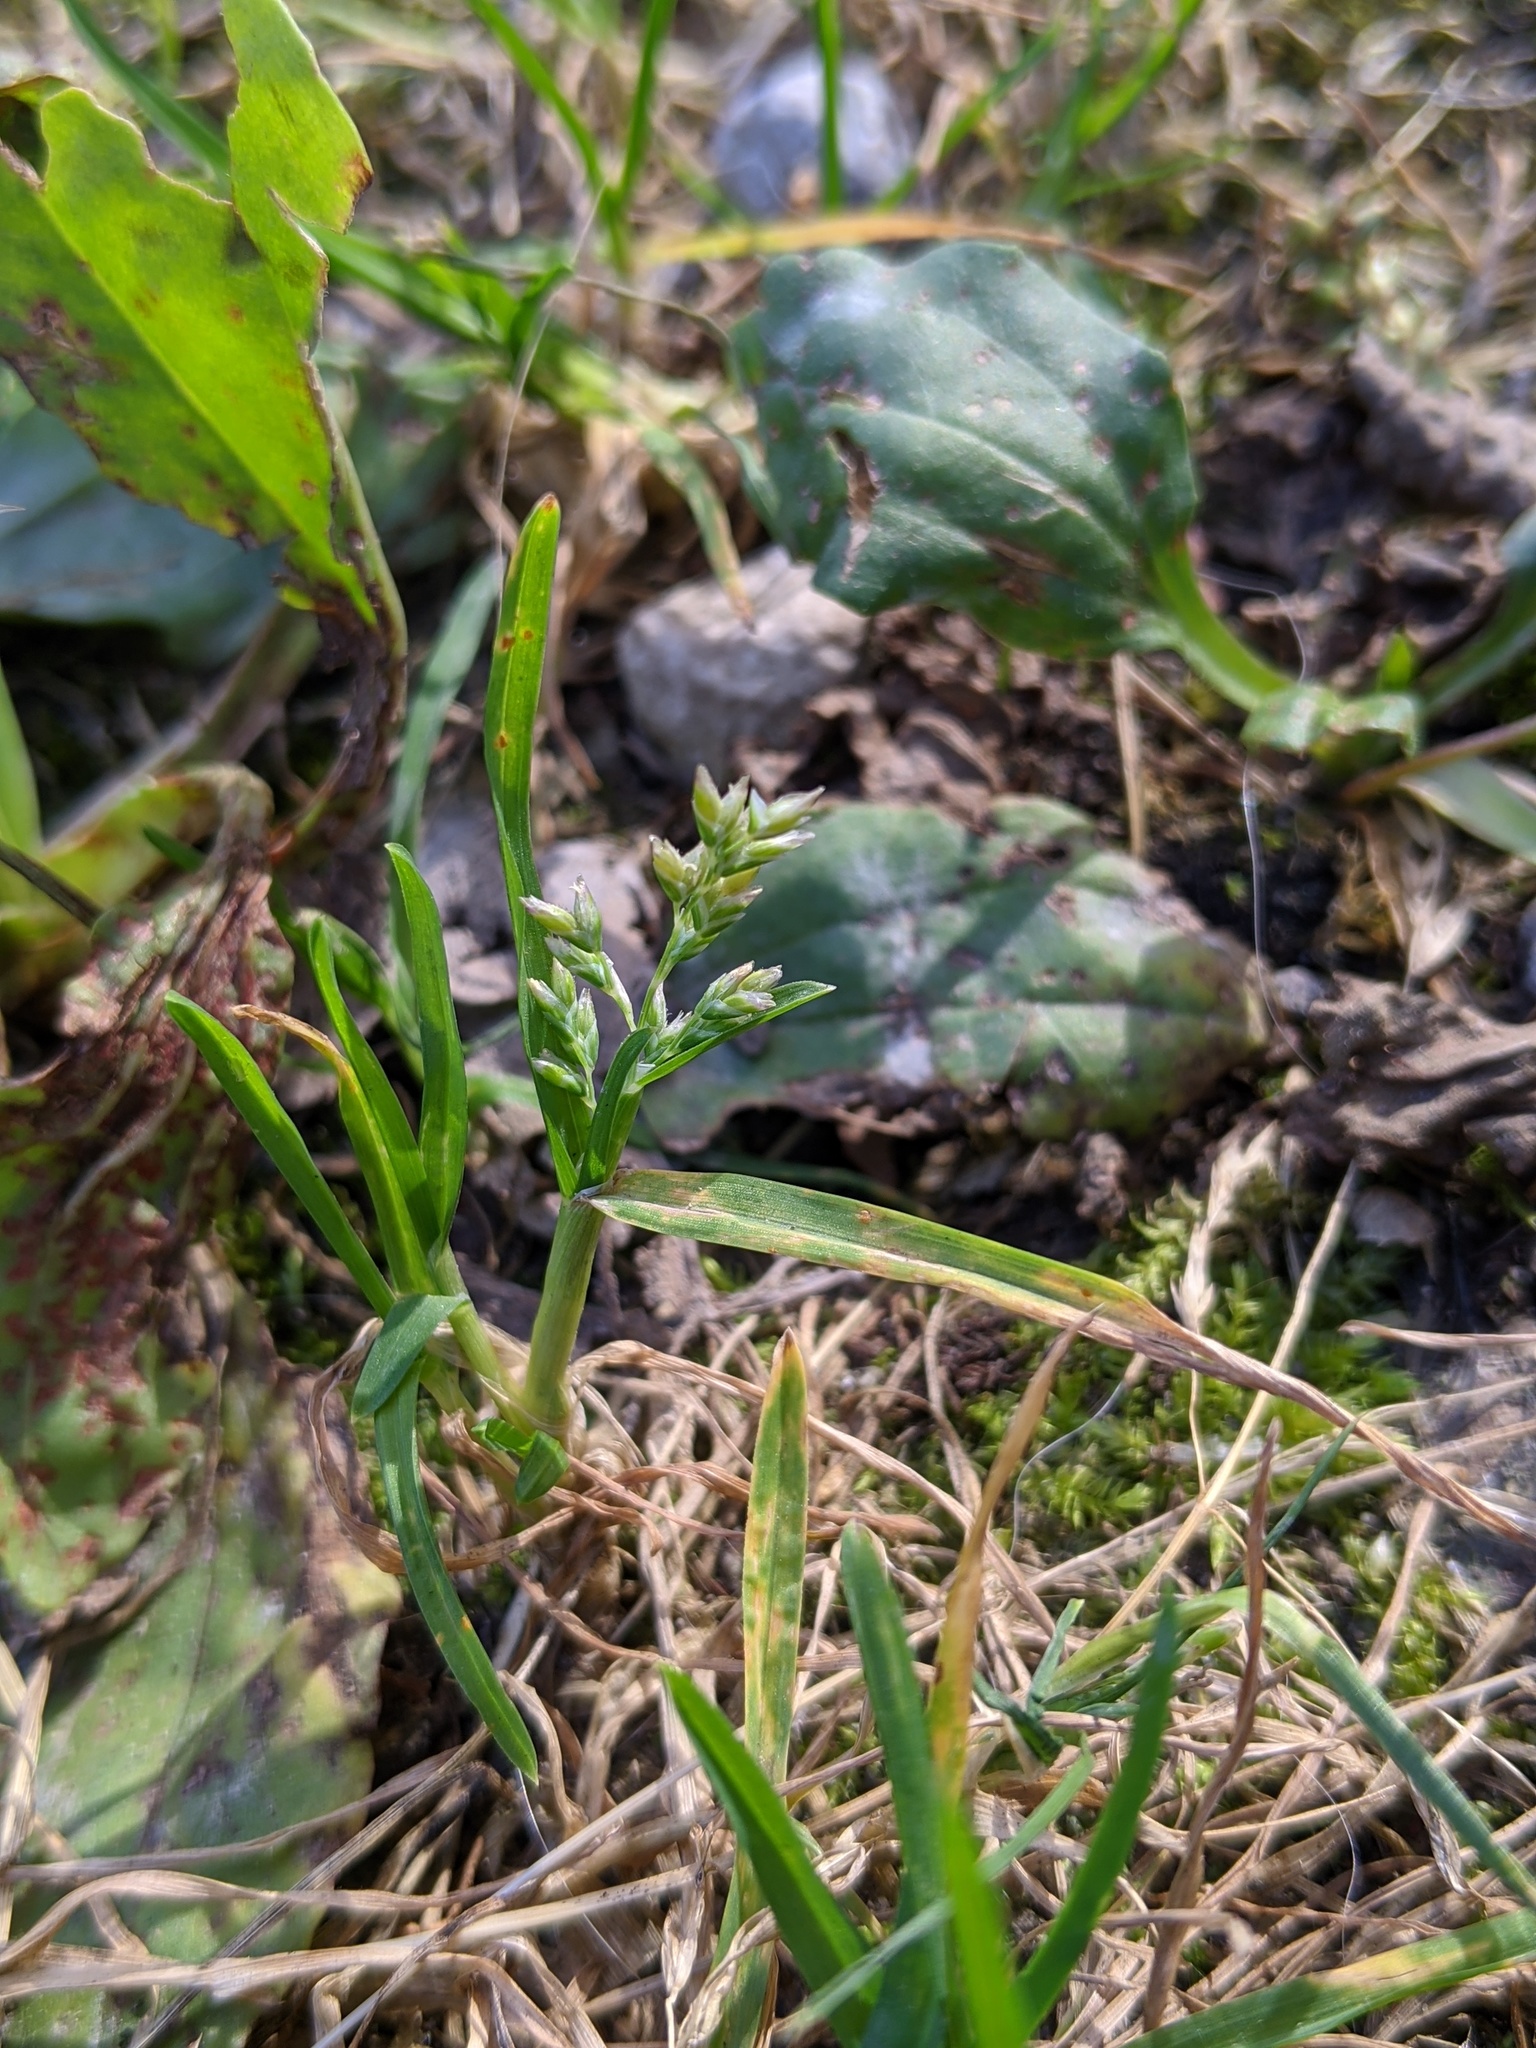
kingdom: Plantae
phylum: Tracheophyta
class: Liliopsida
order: Poales
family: Poaceae
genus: Poa
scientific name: Poa annua
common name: Annual bluegrass
